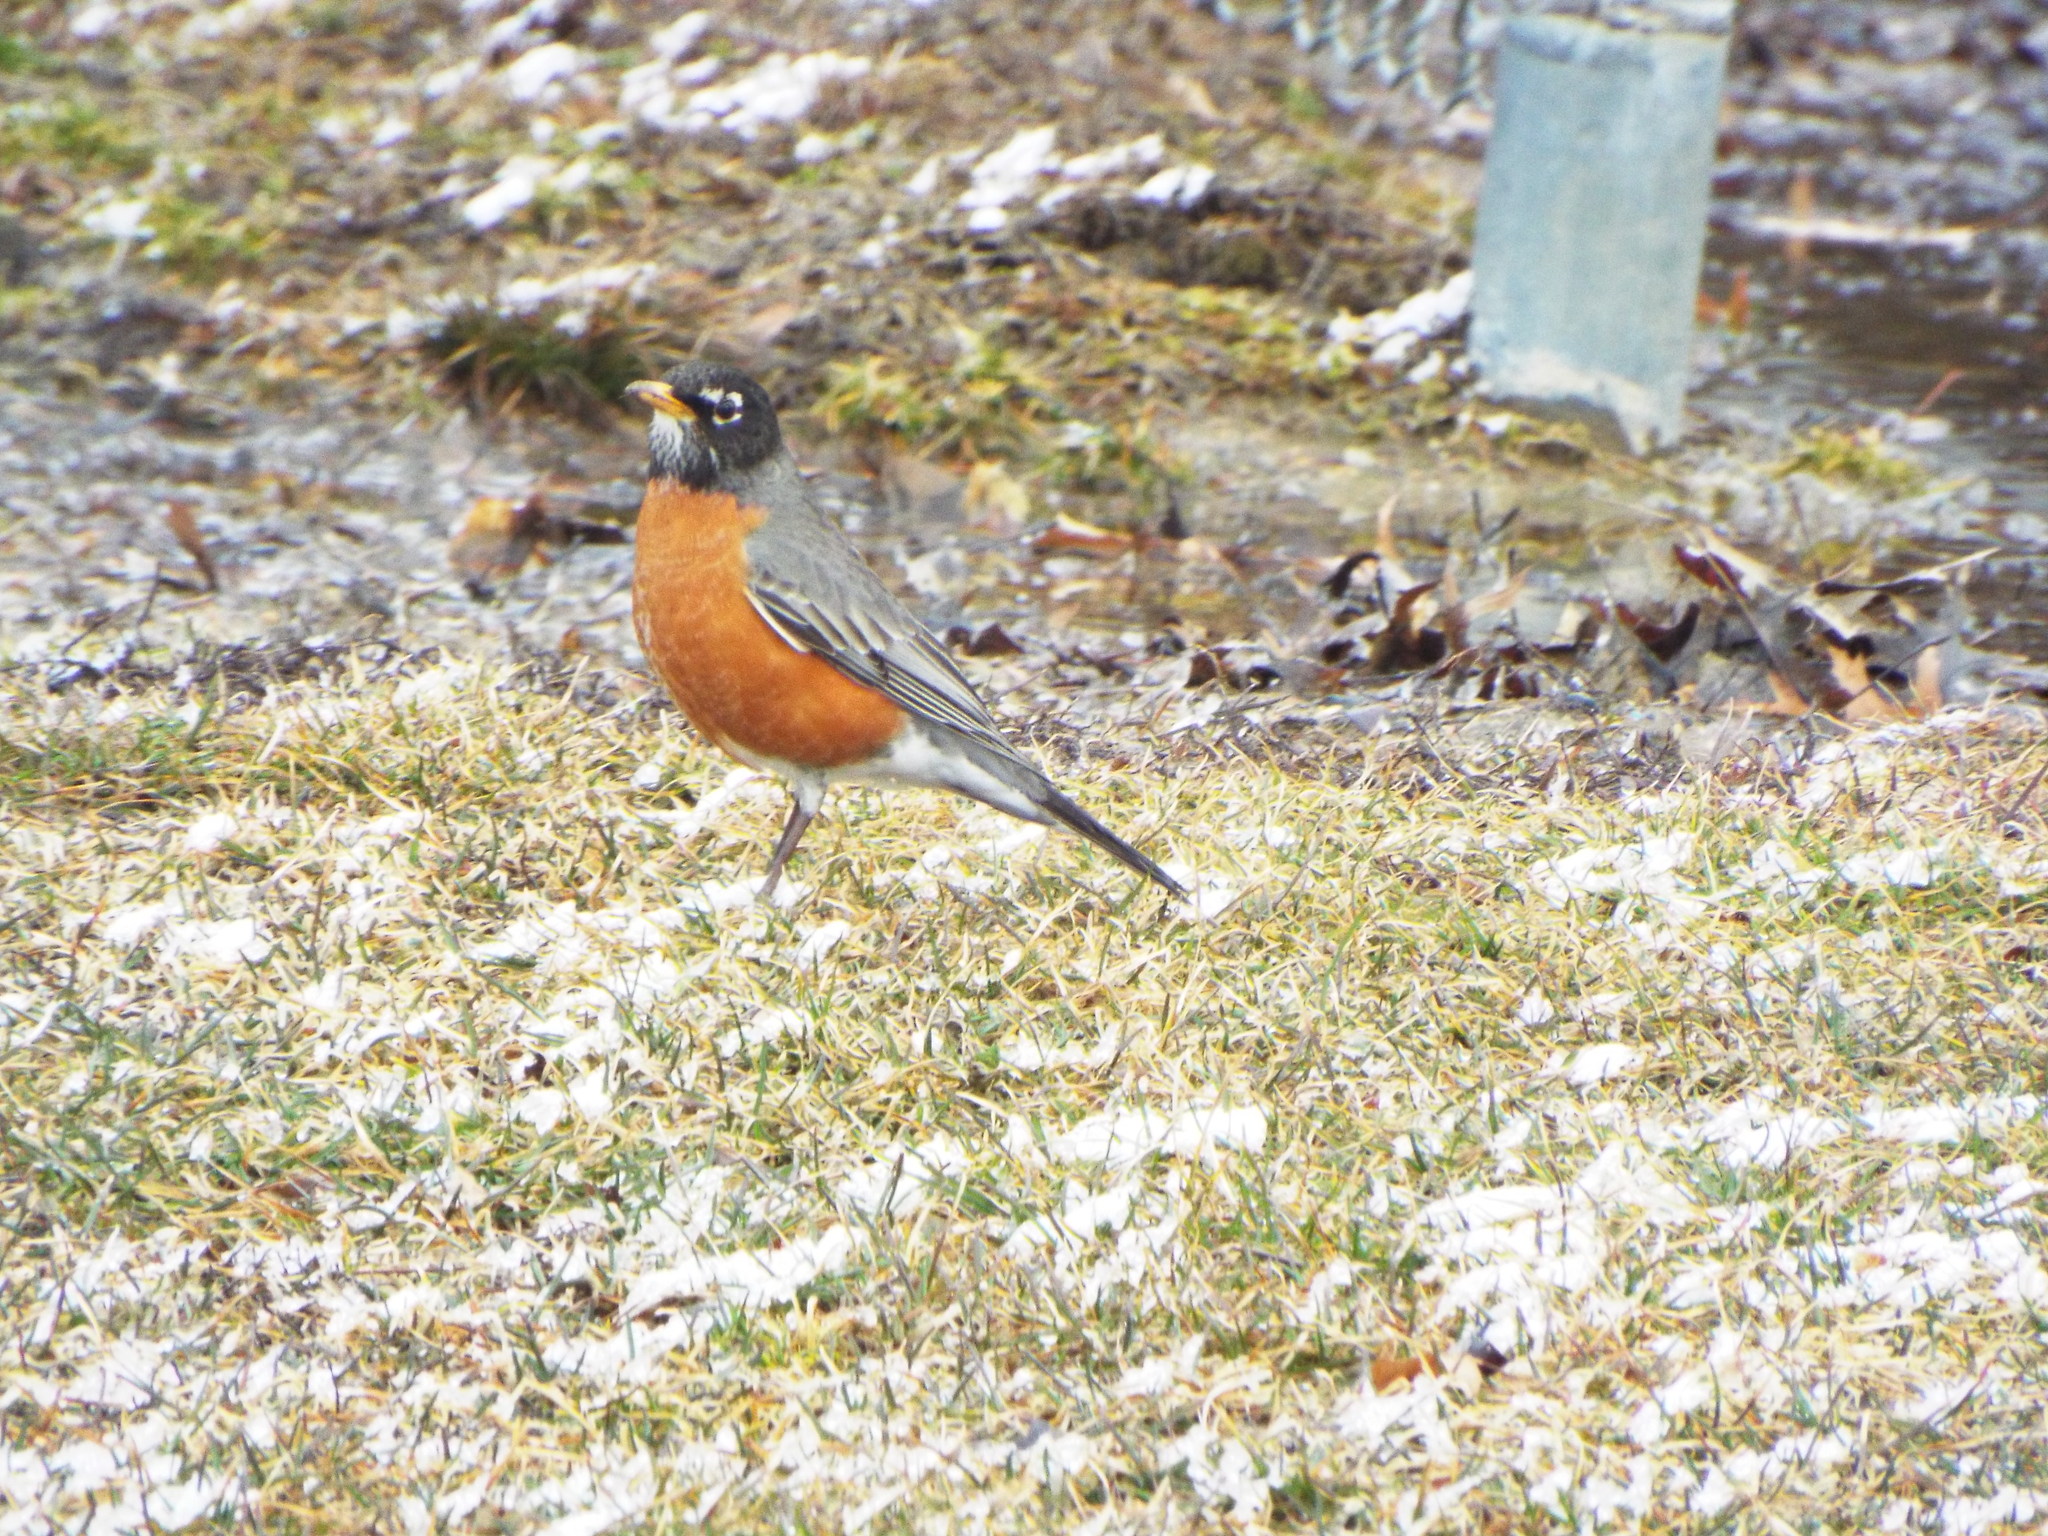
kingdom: Animalia
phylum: Chordata
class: Aves
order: Passeriformes
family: Turdidae
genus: Turdus
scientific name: Turdus migratorius
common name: American robin
